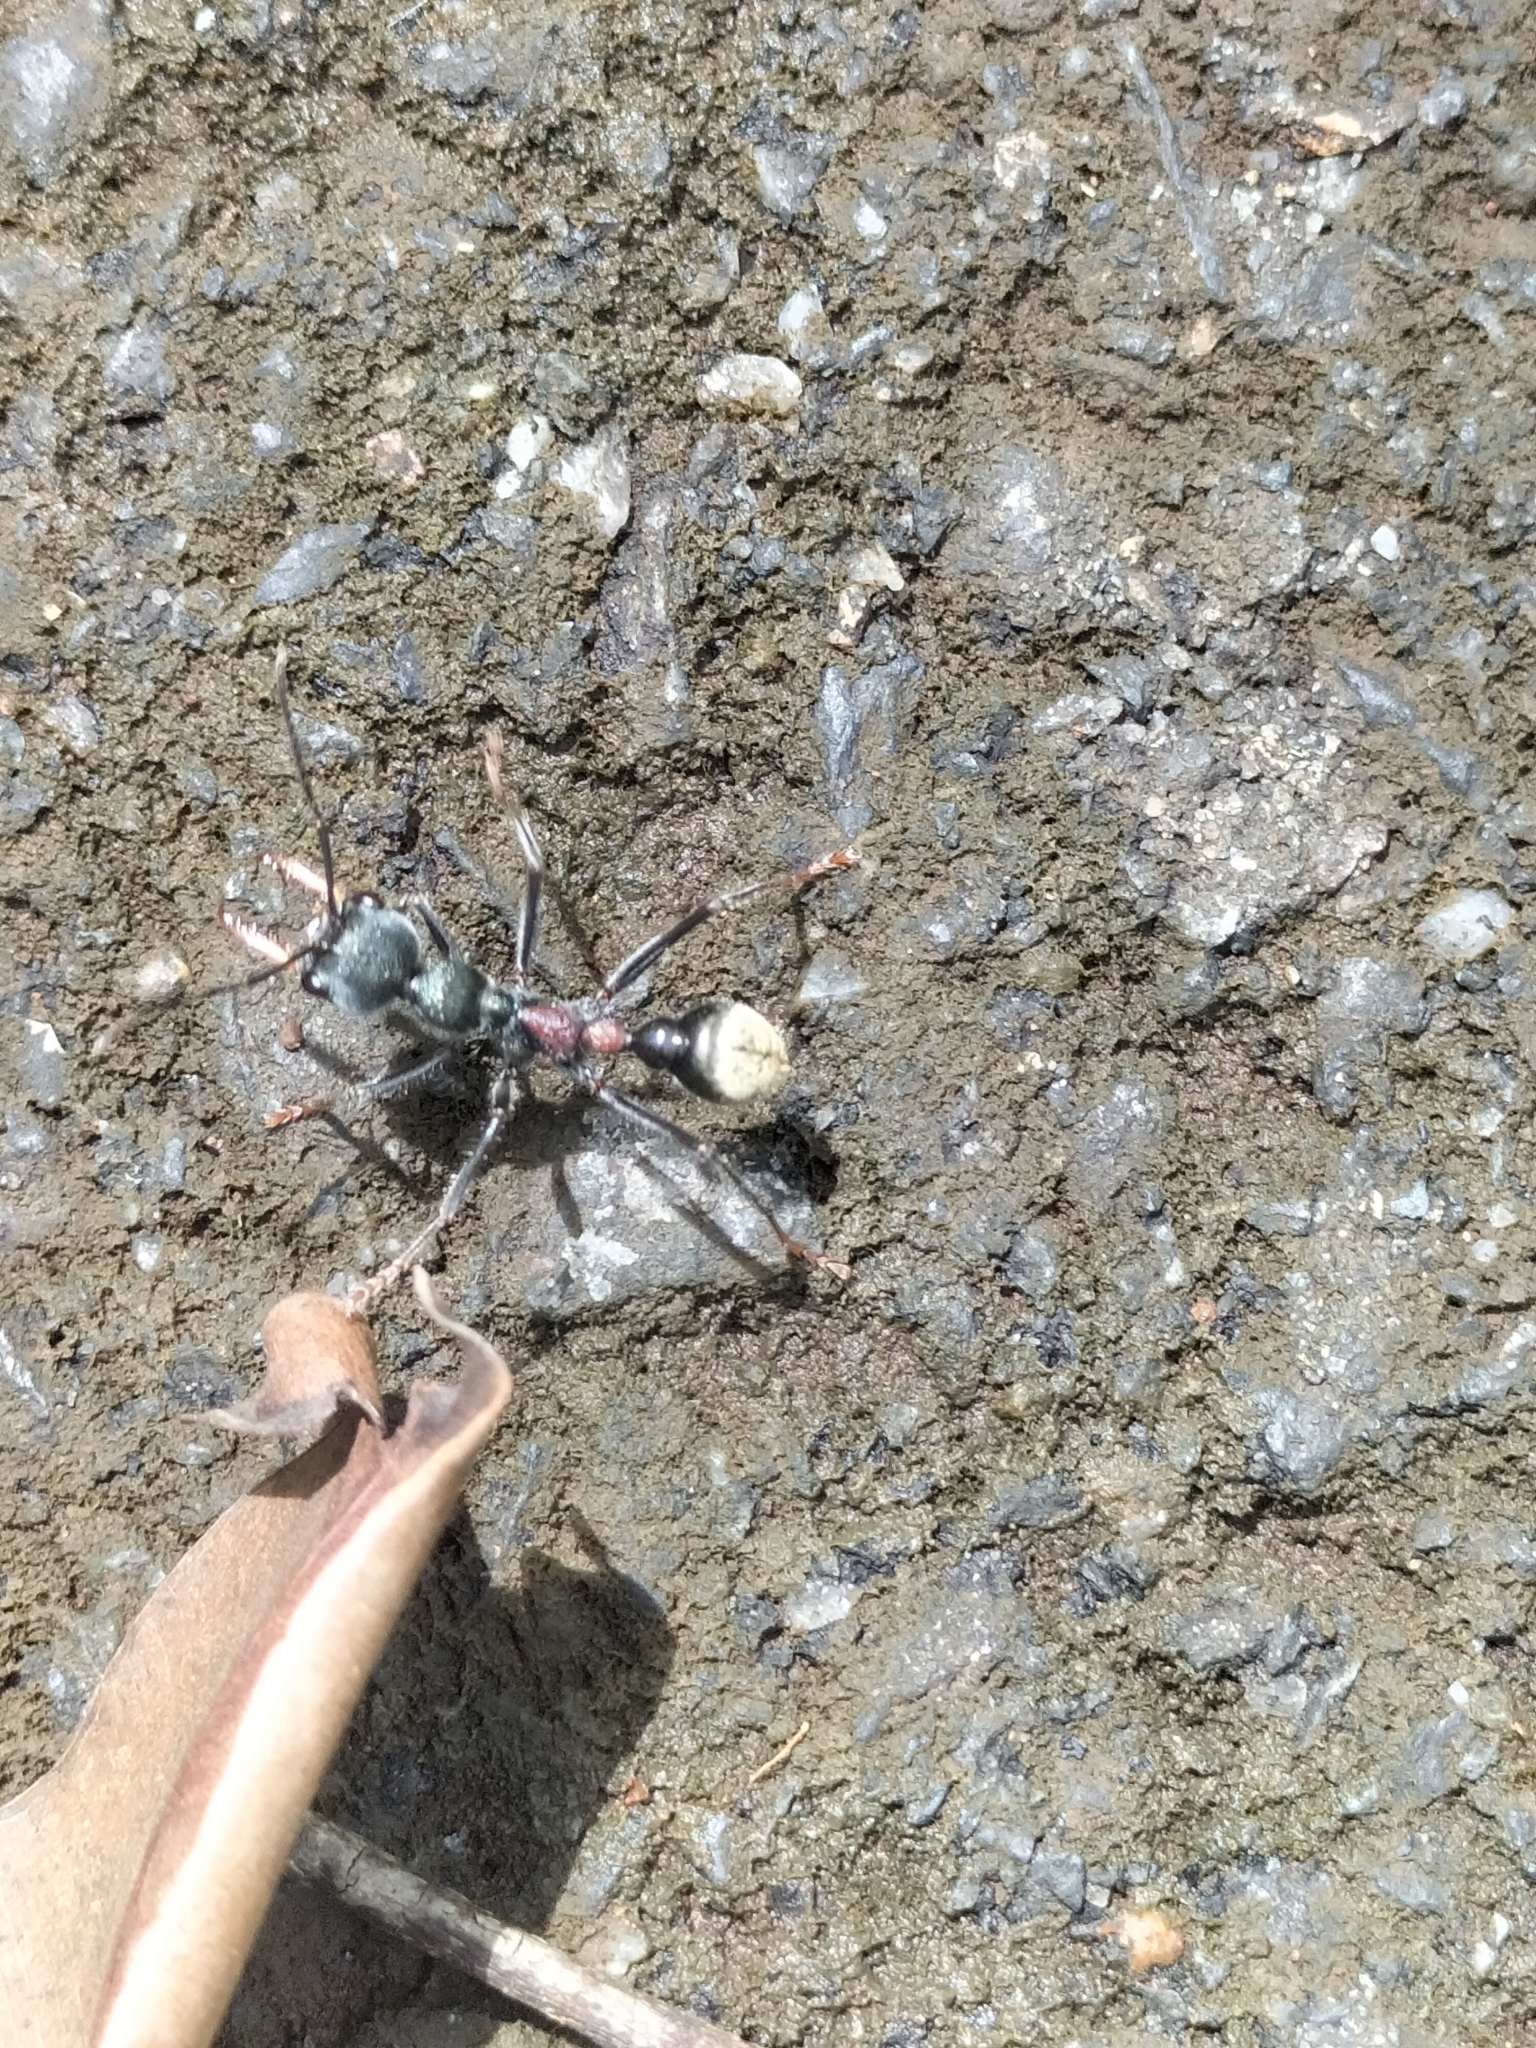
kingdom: Animalia
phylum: Arthropoda
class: Insecta
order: Hymenoptera
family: Formicidae
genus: Myrmecia
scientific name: Myrmecia athertonensis
